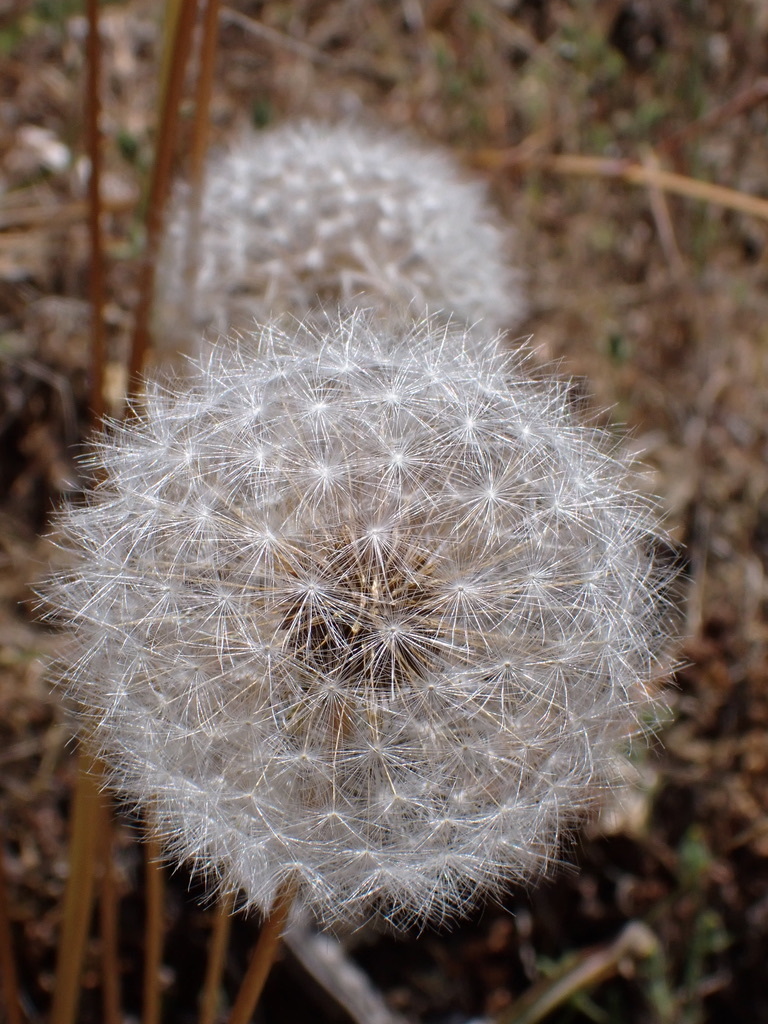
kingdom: Plantae
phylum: Tracheophyta
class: Magnoliopsida
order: Asterales
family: Asteraceae
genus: Agoseris
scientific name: Agoseris grandiflora
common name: Grassland agoseris
